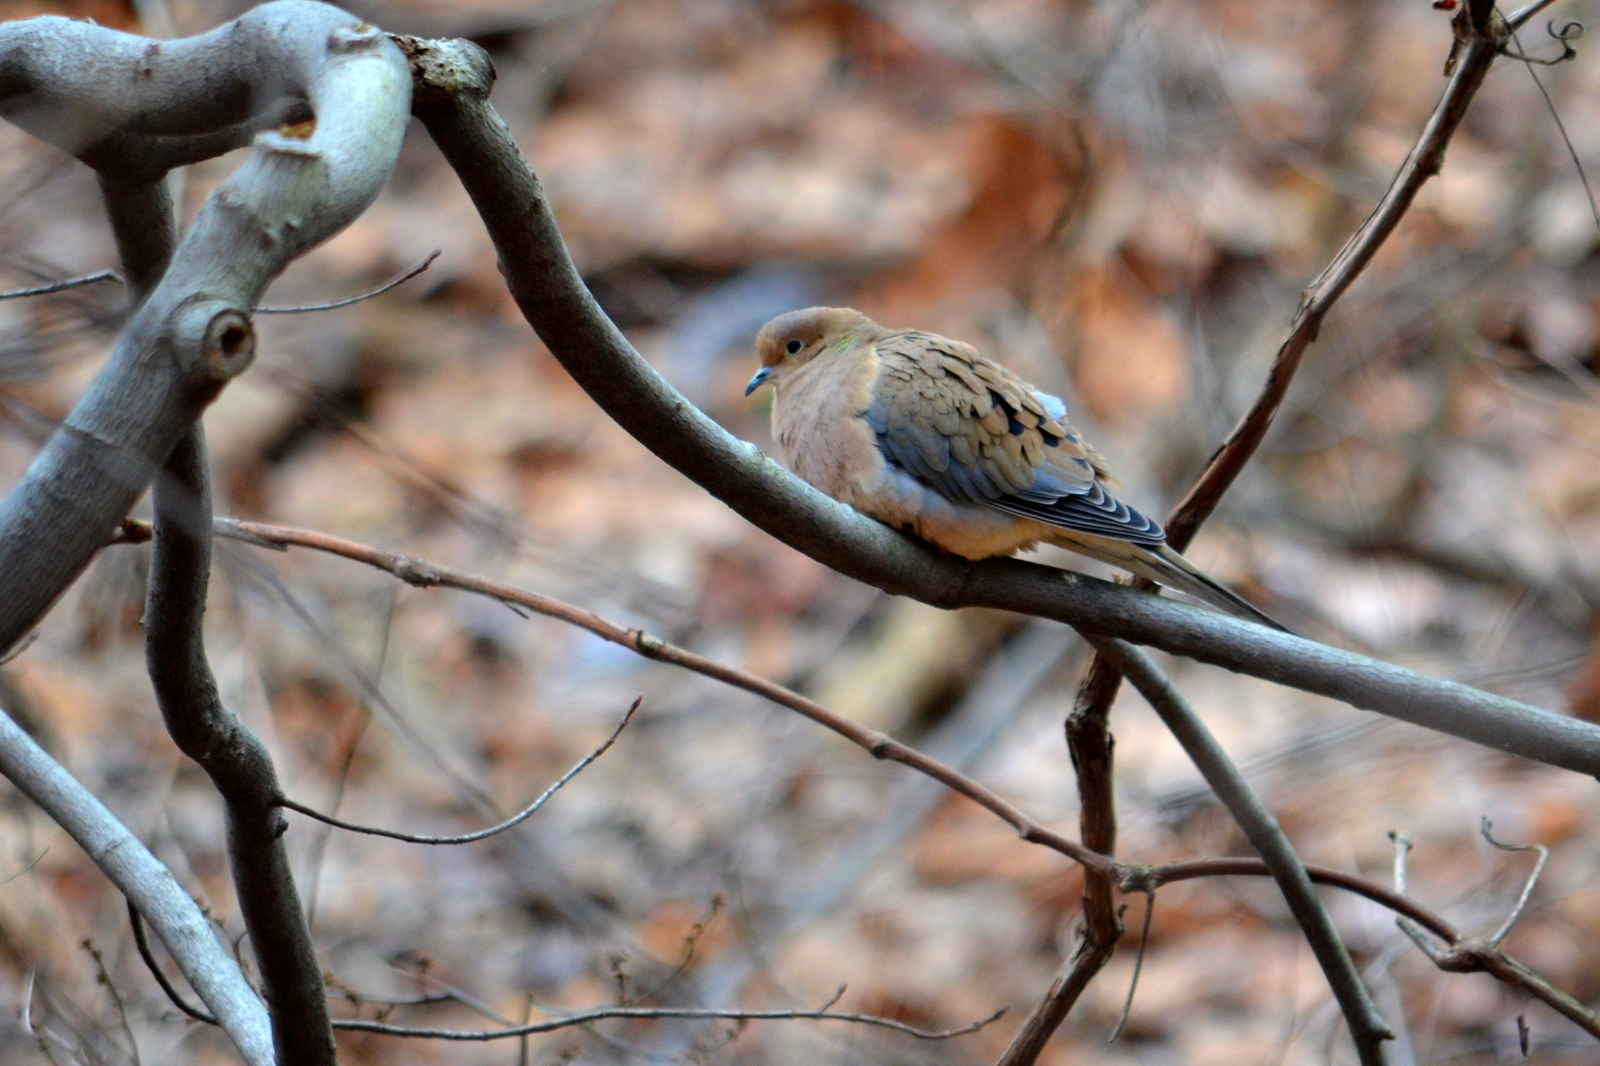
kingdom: Animalia
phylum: Chordata
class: Aves
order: Columbiformes
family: Columbidae
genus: Zenaida
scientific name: Zenaida macroura
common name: Mourning dove
